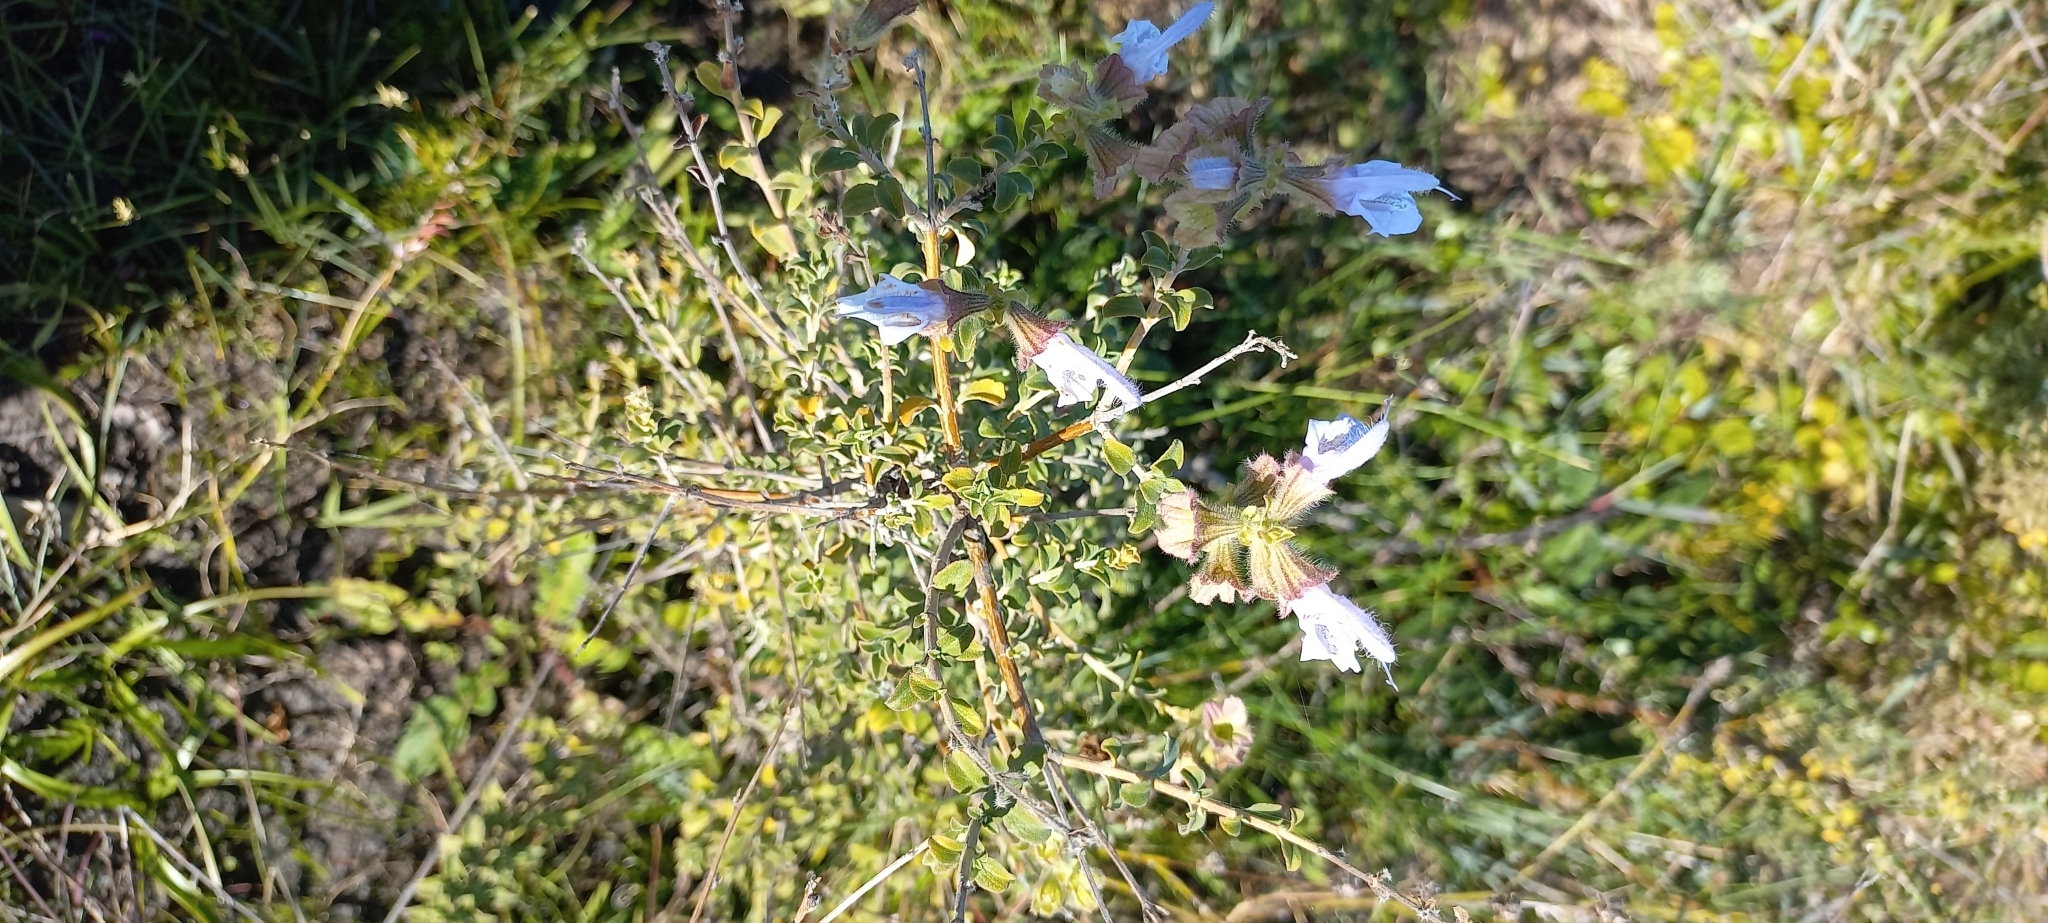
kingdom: Plantae
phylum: Tracheophyta
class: Magnoliopsida
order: Lamiales
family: Lamiaceae
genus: Salvia
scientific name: Salvia africana
